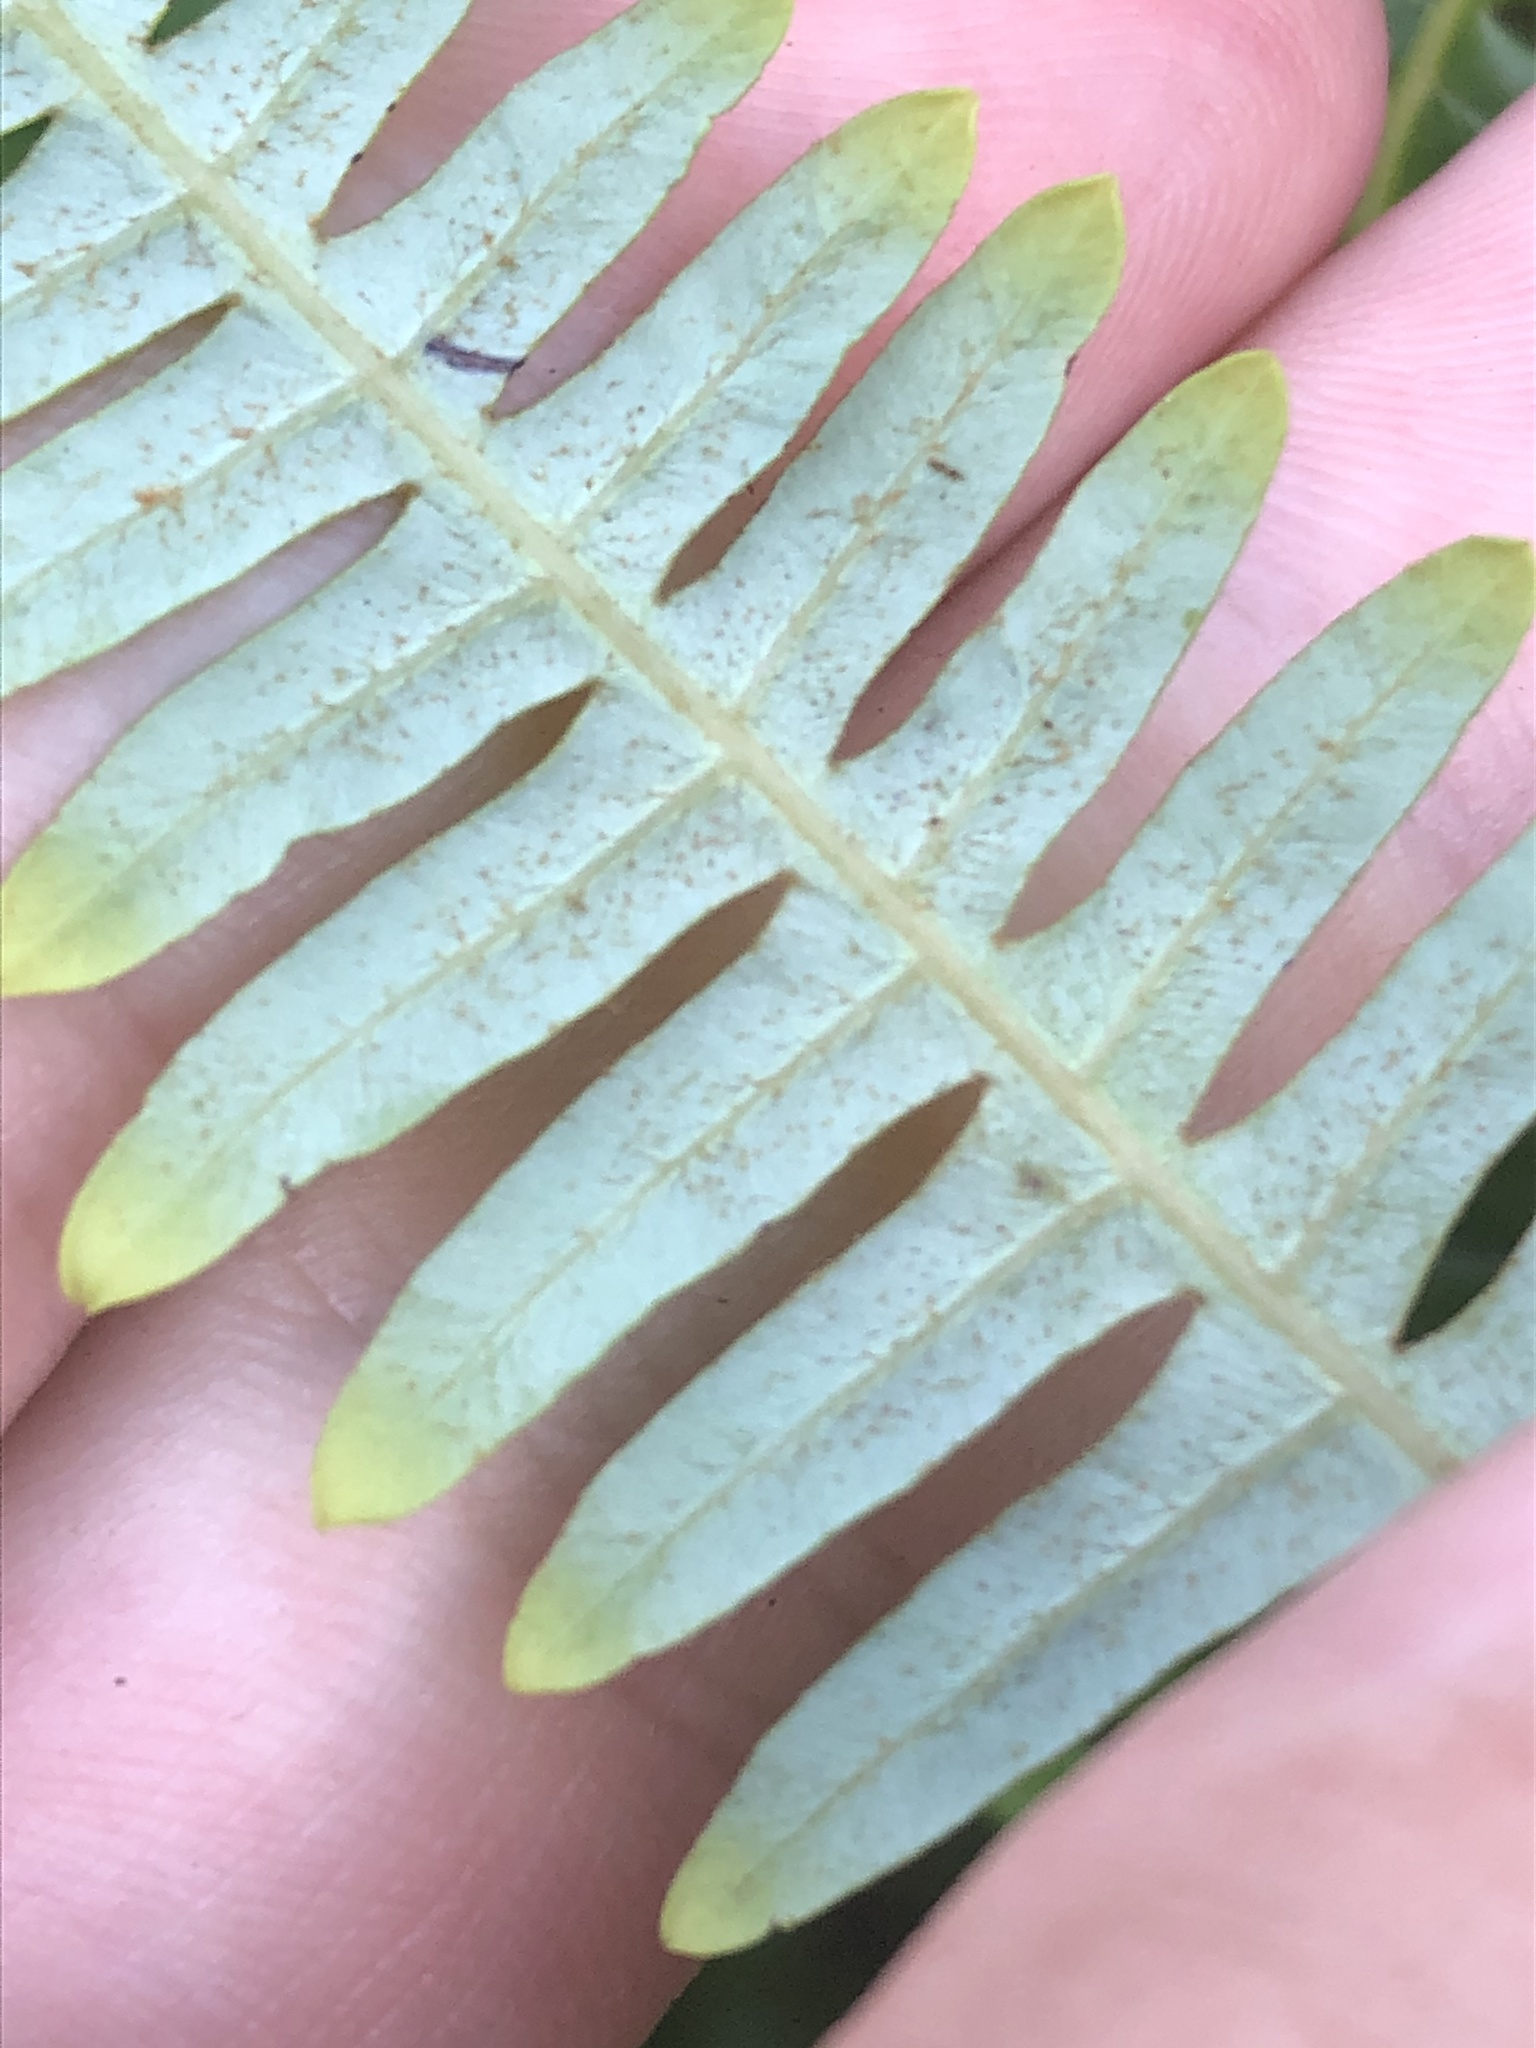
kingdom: Plantae
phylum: Tracheophyta
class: Polypodiopsida
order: Gleicheniales
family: Gleicheniaceae
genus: Gleichenella
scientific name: Gleichenella pectinata
